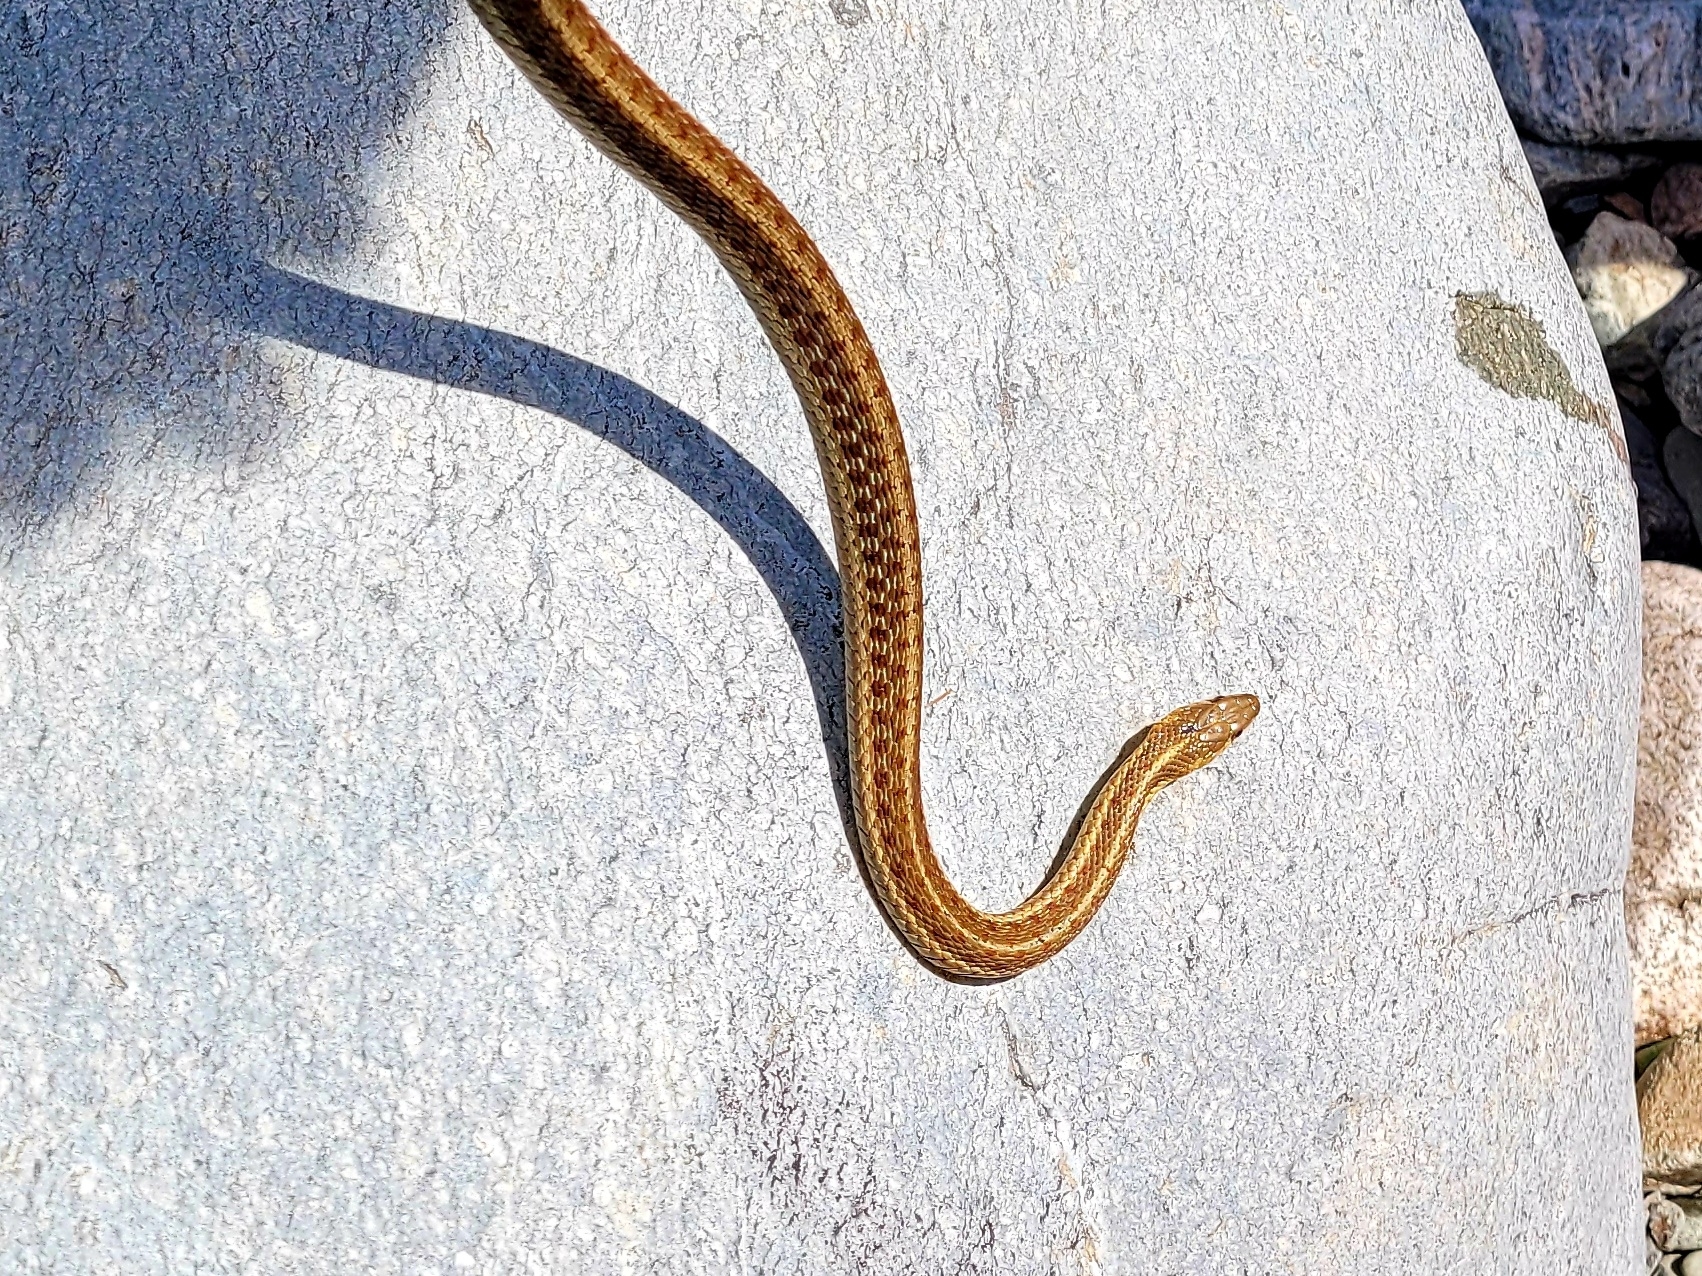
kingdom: Animalia
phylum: Chordata
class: Squamata
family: Colubridae
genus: Thamnophis
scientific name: Thamnophis sirtalis
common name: Common garter snake
